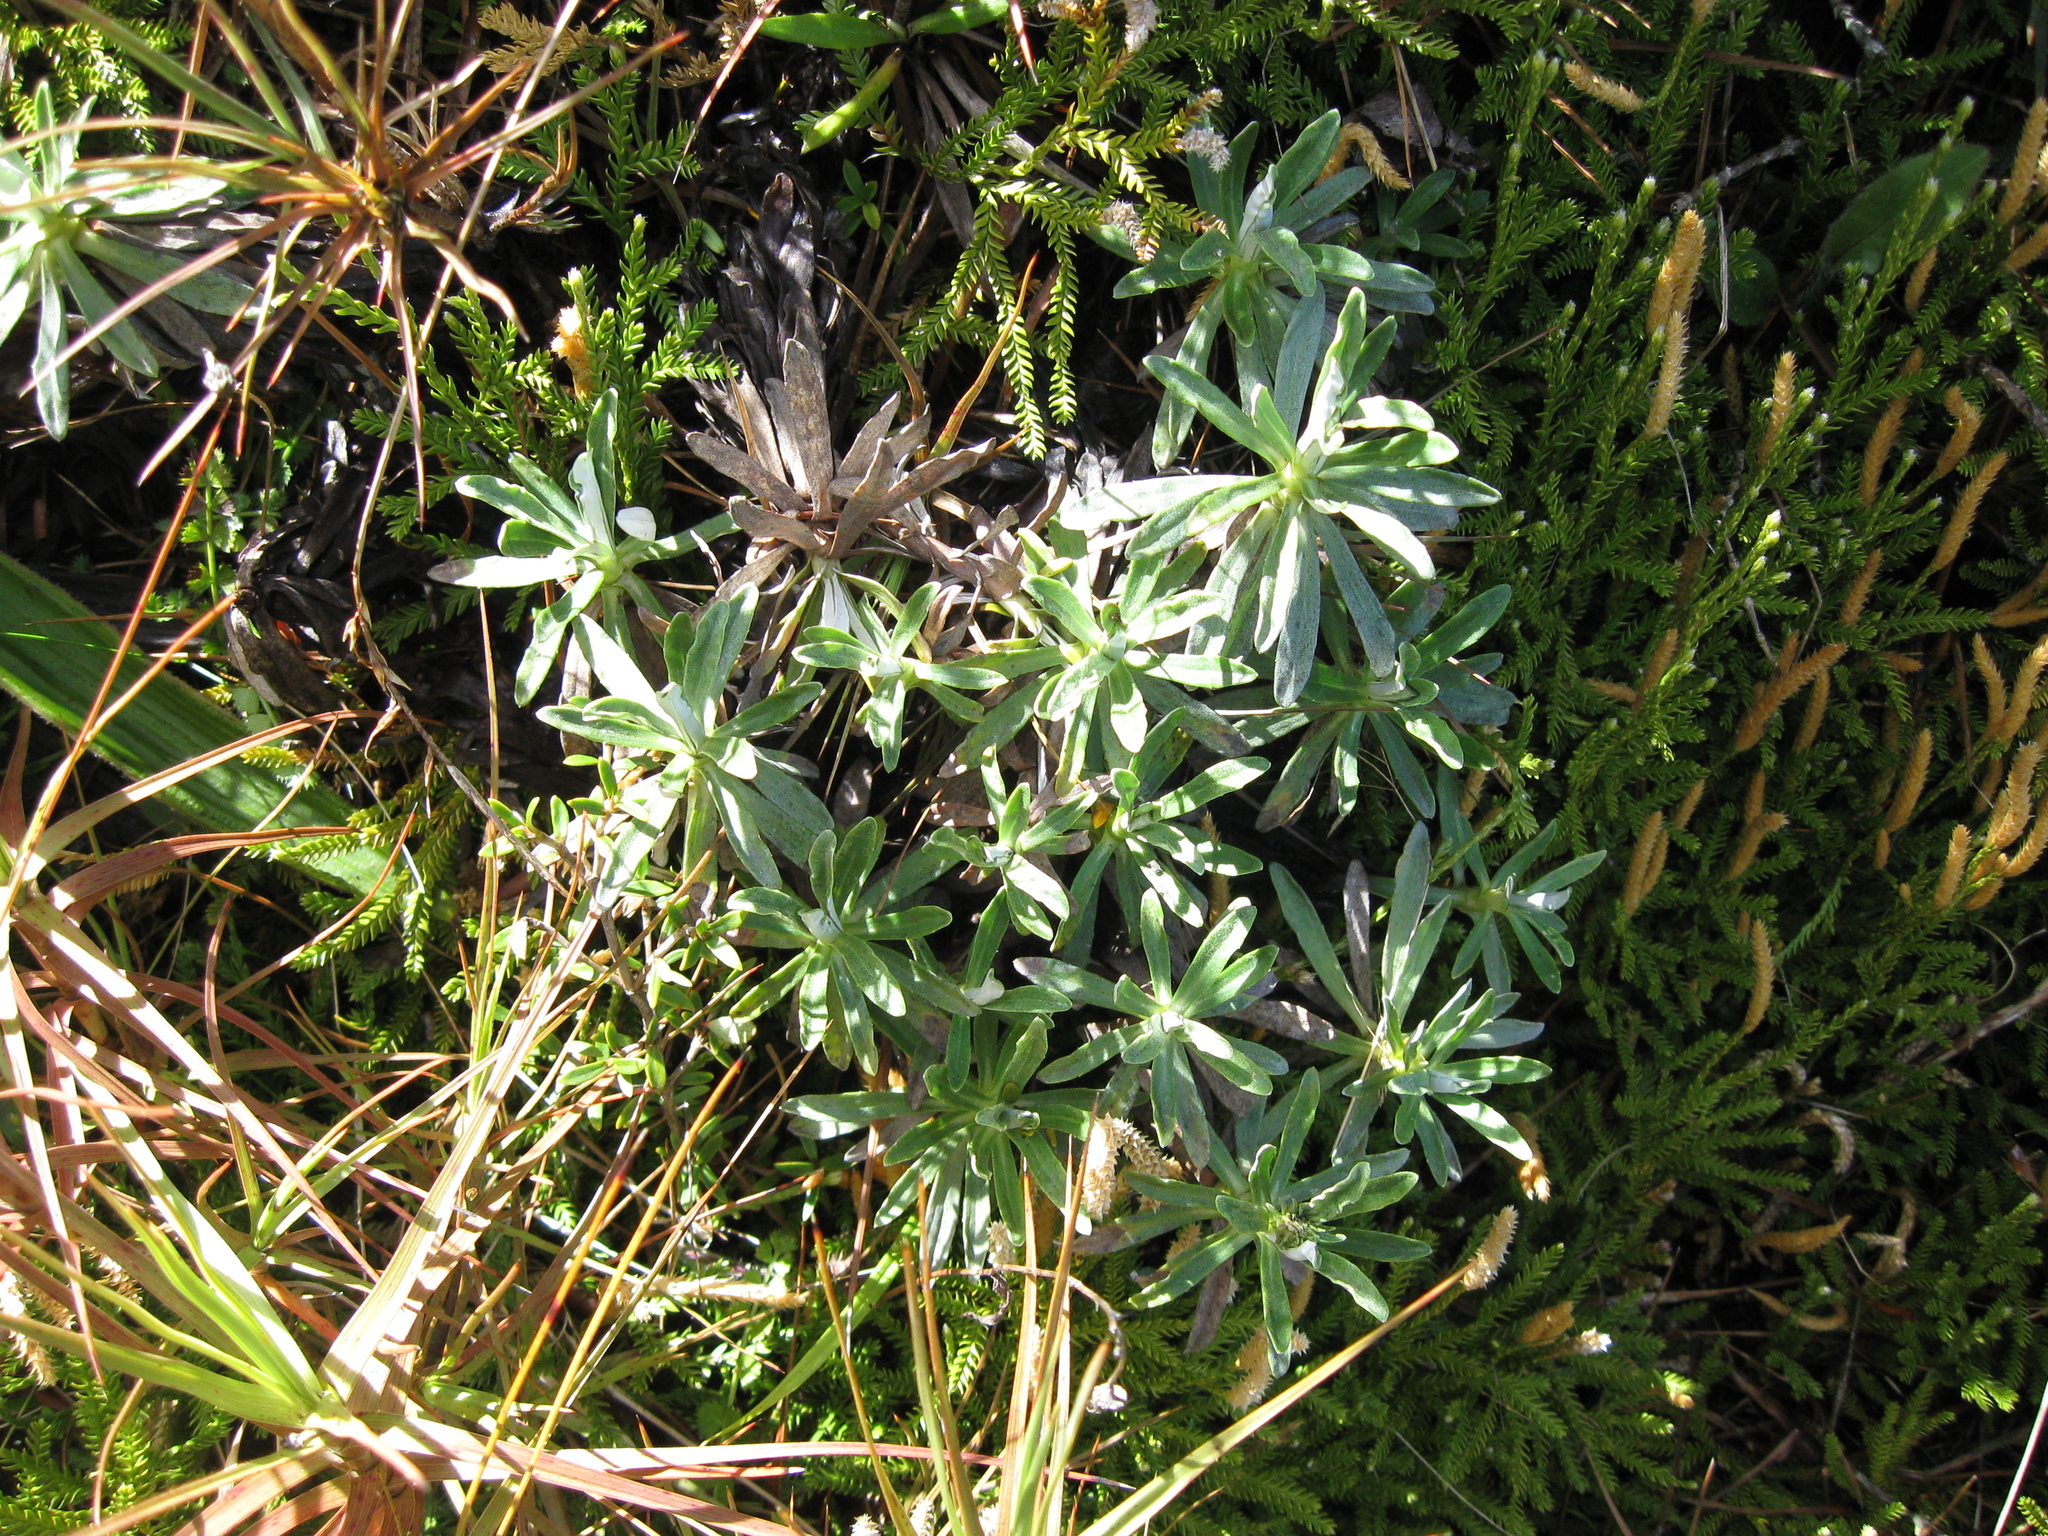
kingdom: Plantae
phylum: Tracheophyta
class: Magnoliopsida
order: Asterales
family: Asteraceae
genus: Celmisia
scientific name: Celmisia angustifolia
